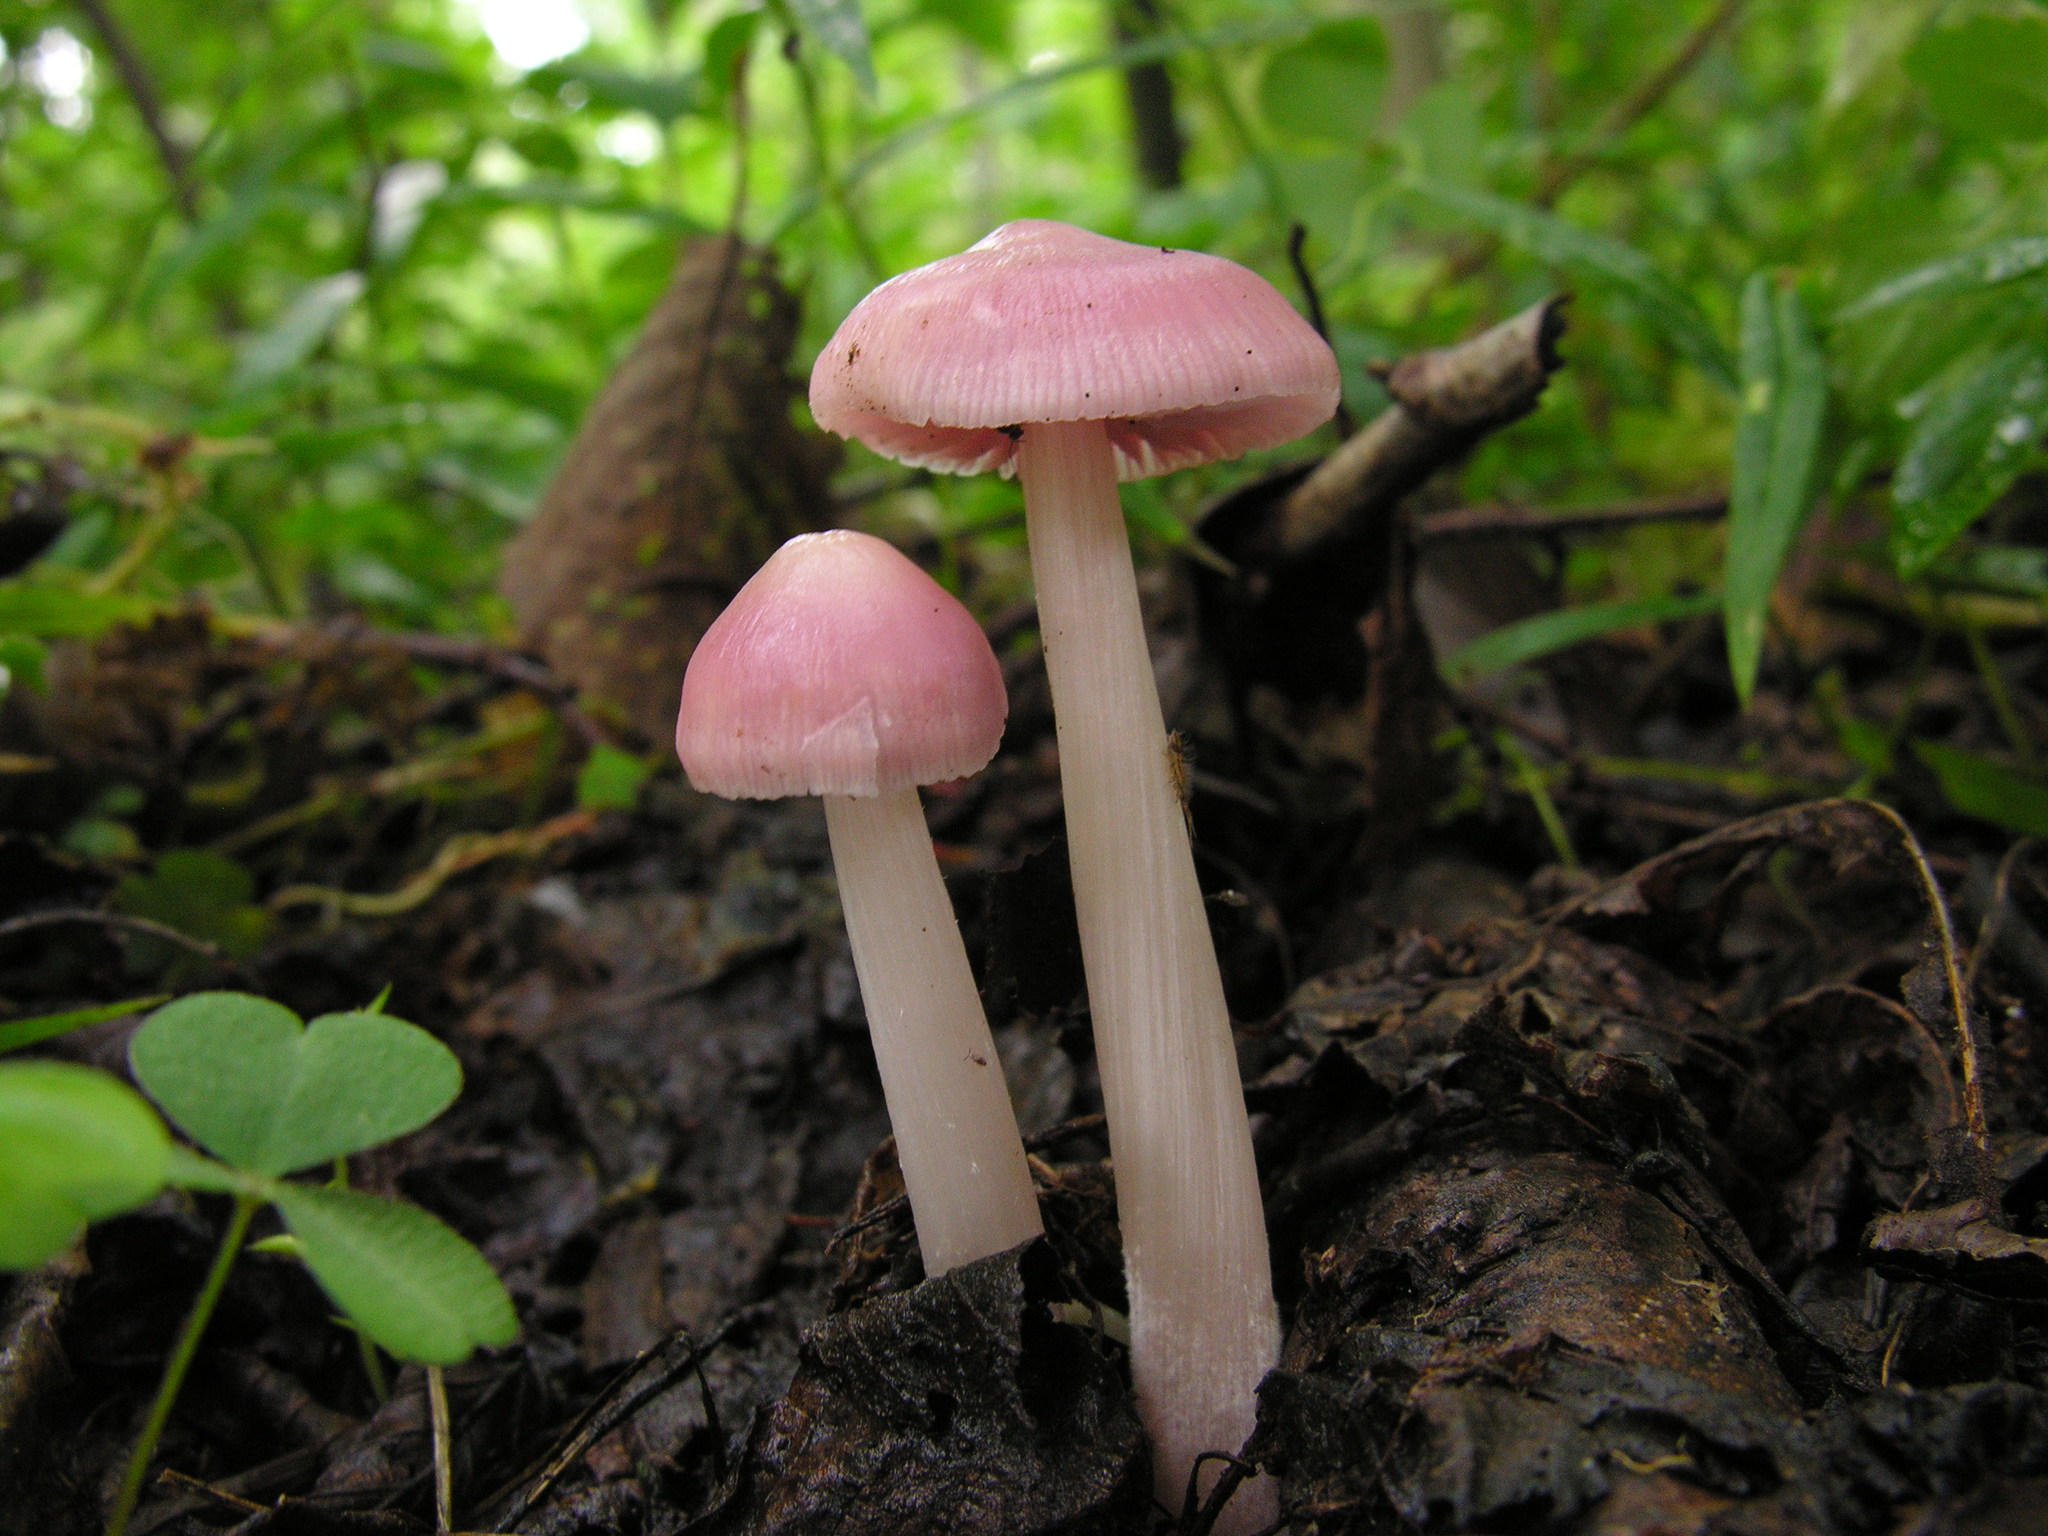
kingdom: Fungi
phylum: Basidiomycota
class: Agaricomycetes
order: Agaricales
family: Mycenaceae
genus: Mycena
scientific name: Mycena rosea
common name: Rosy bonnet
